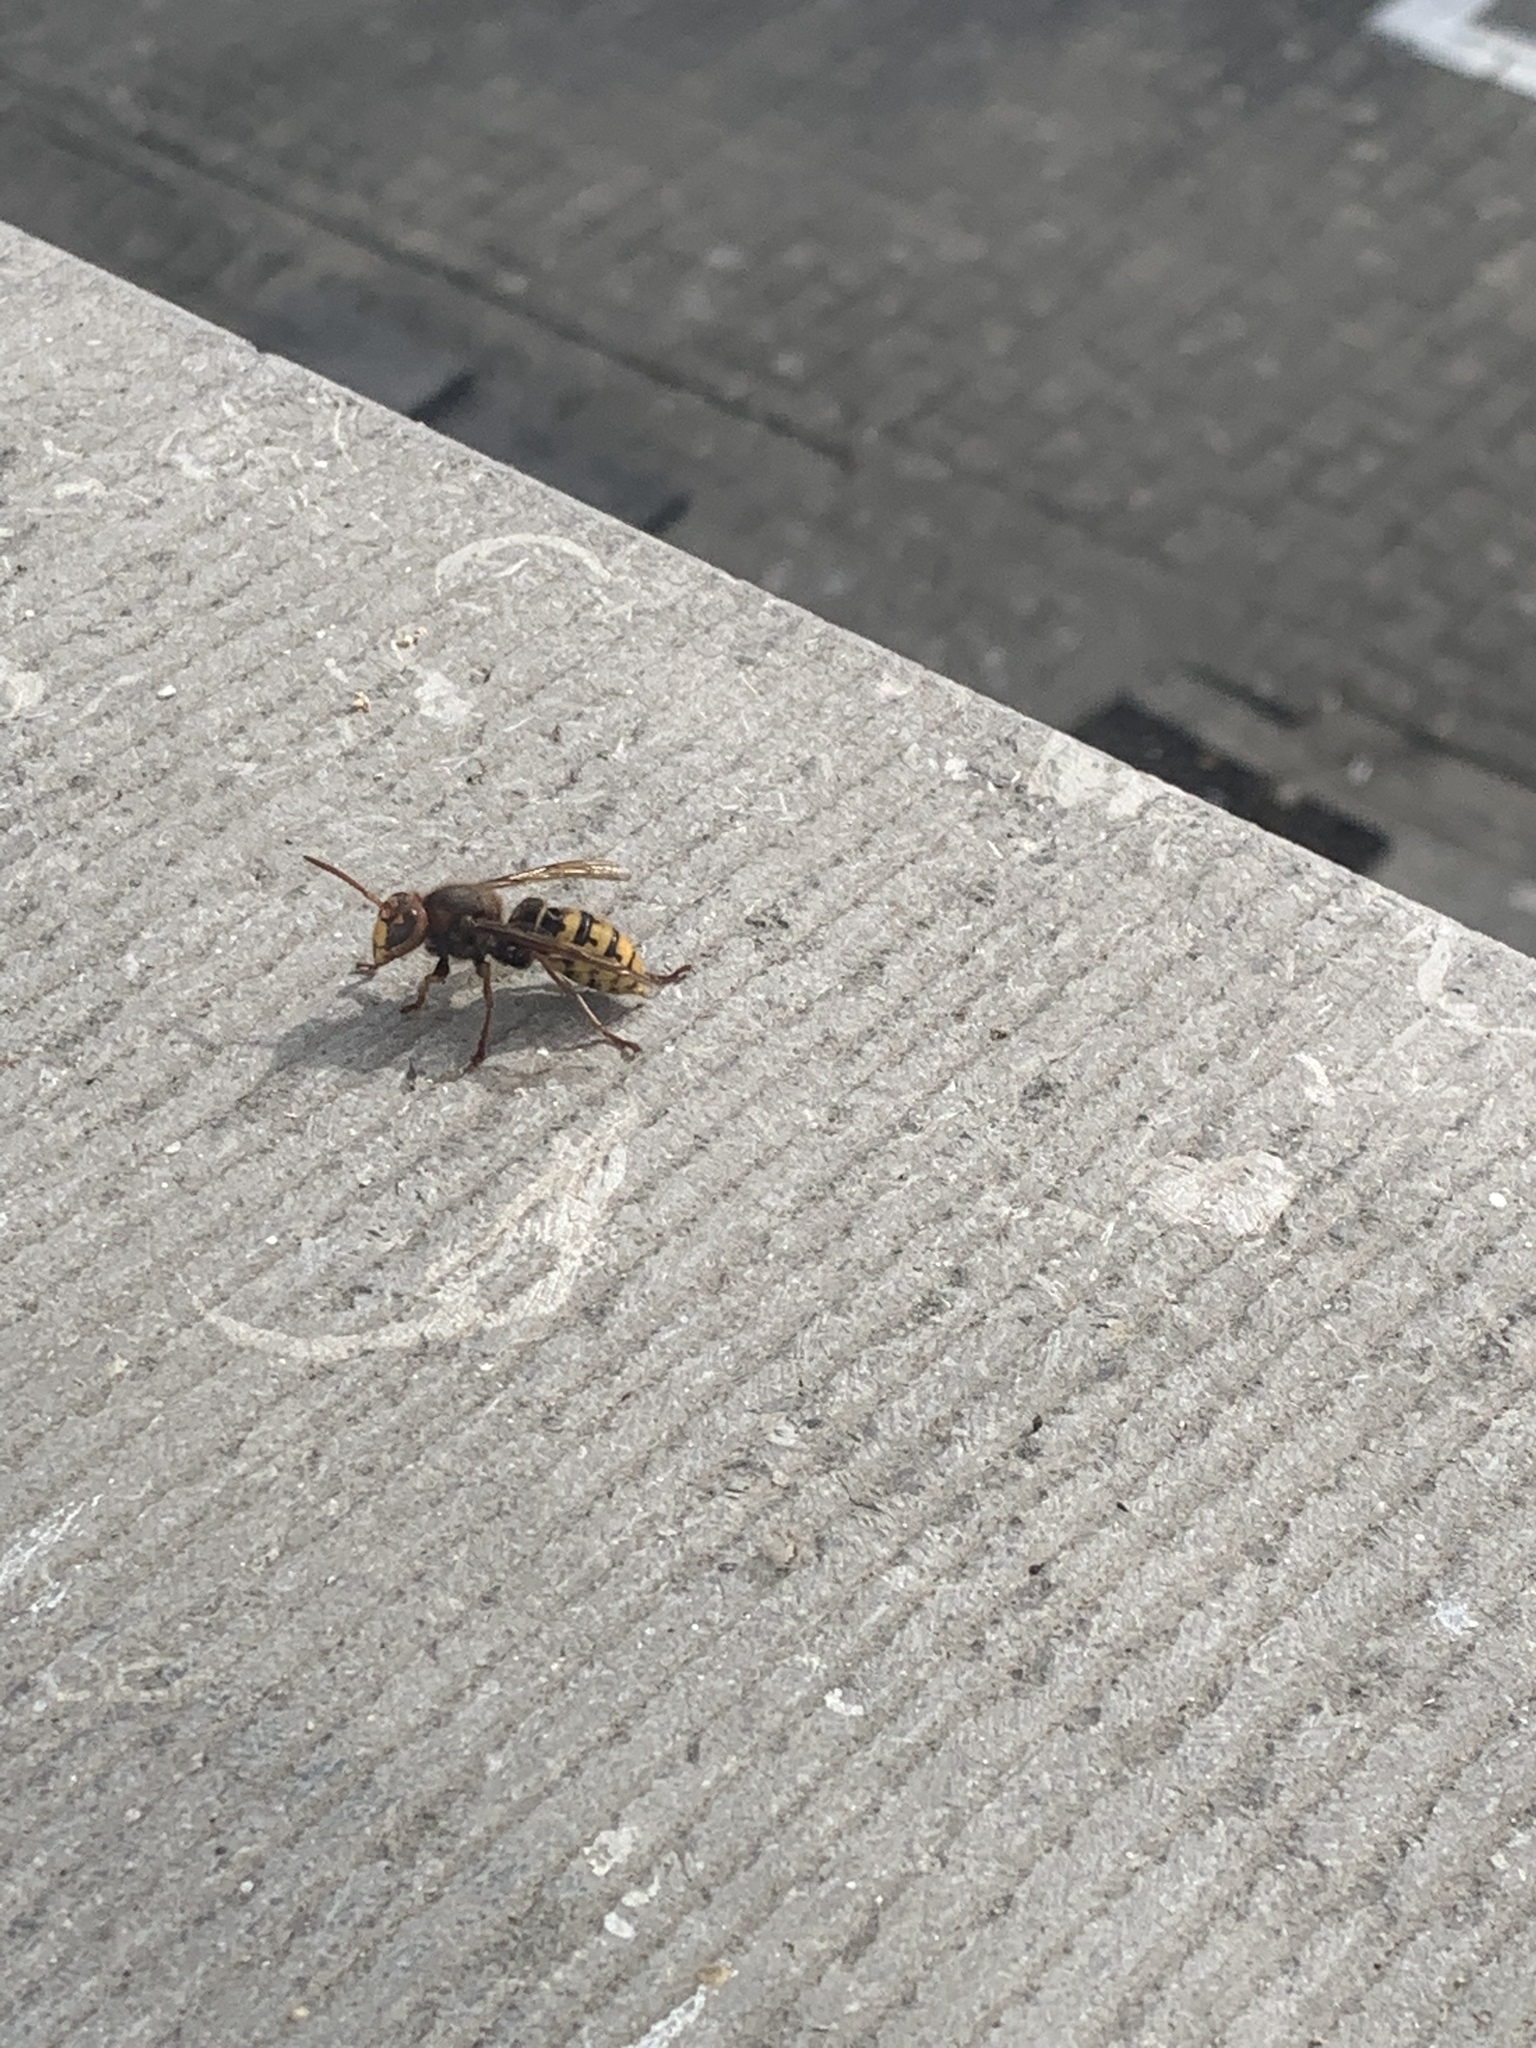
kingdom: Animalia
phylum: Arthropoda
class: Insecta
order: Hymenoptera
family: Vespidae
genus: Vespa
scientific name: Vespa crabro
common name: Hornet
